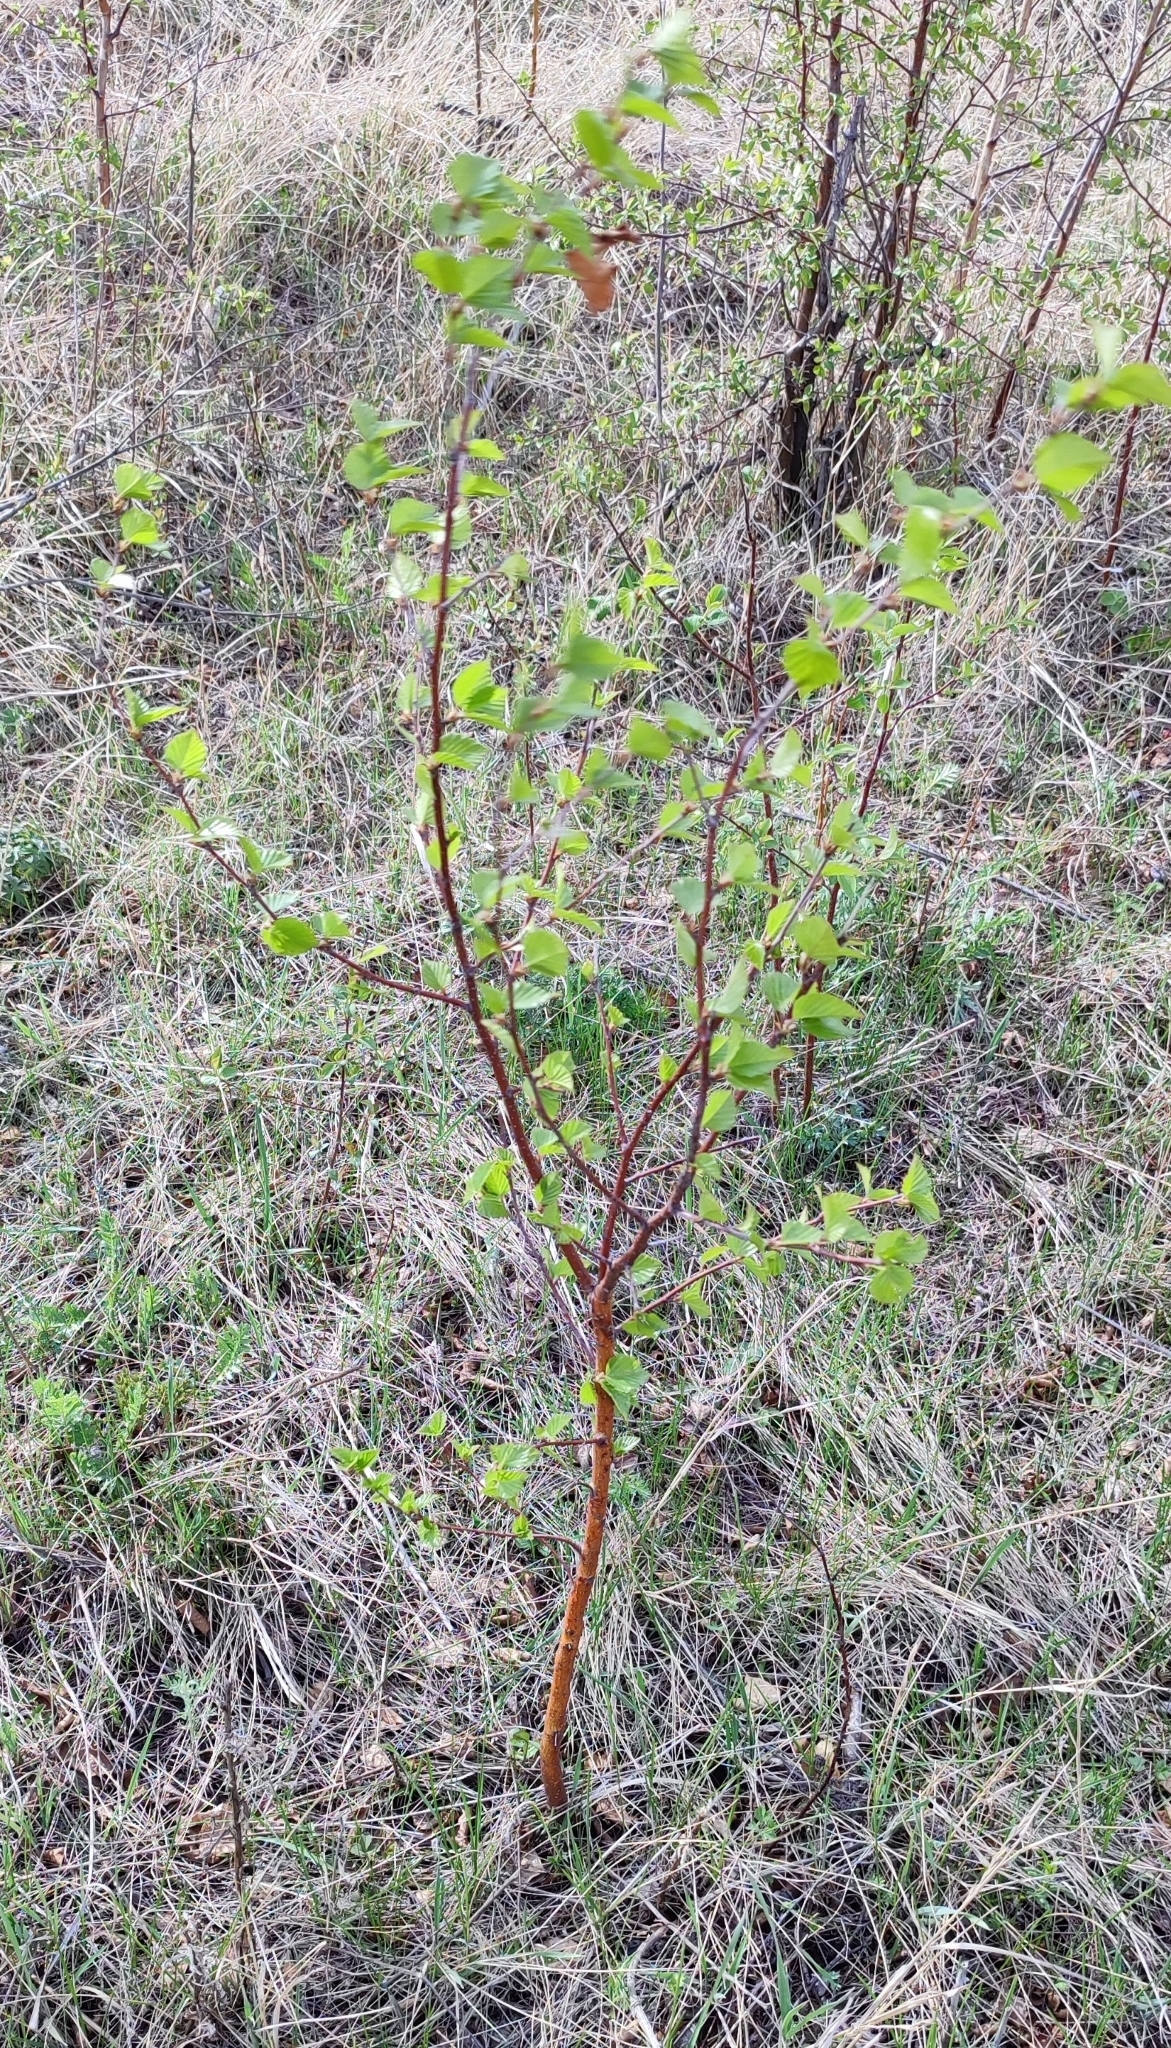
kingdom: Plantae
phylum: Tracheophyta
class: Magnoliopsida
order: Fagales
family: Betulaceae
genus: Betula
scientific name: Betula pendula
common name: Silver birch
